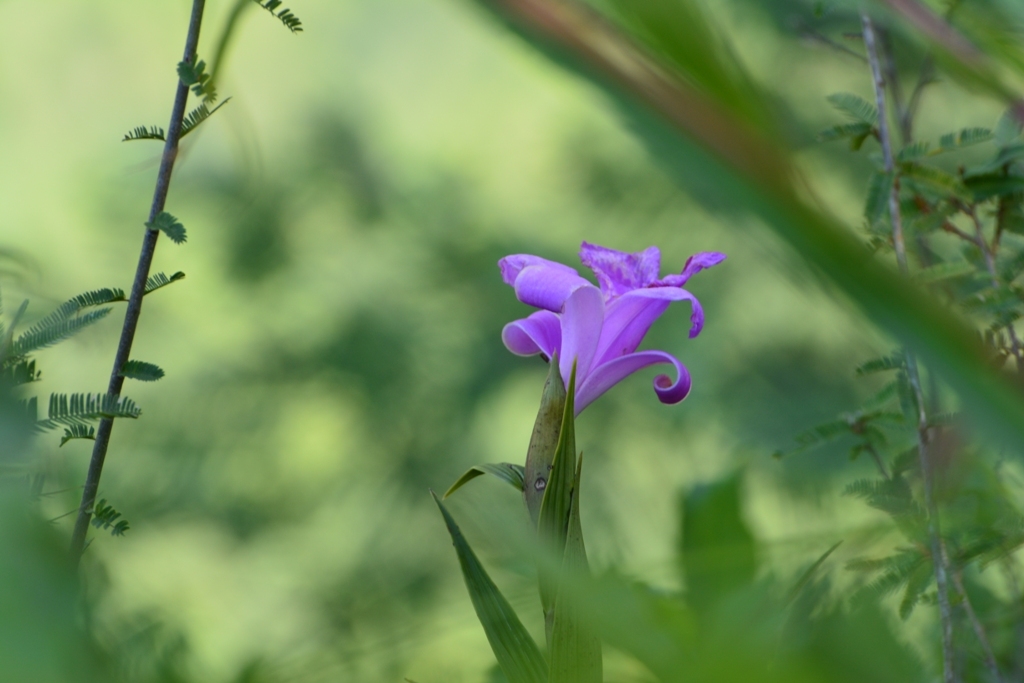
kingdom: Plantae
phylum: Tracheophyta
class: Liliopsida
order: Asparagales
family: Orchidaceae
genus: Sobralia
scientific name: Sobralia macrantha
